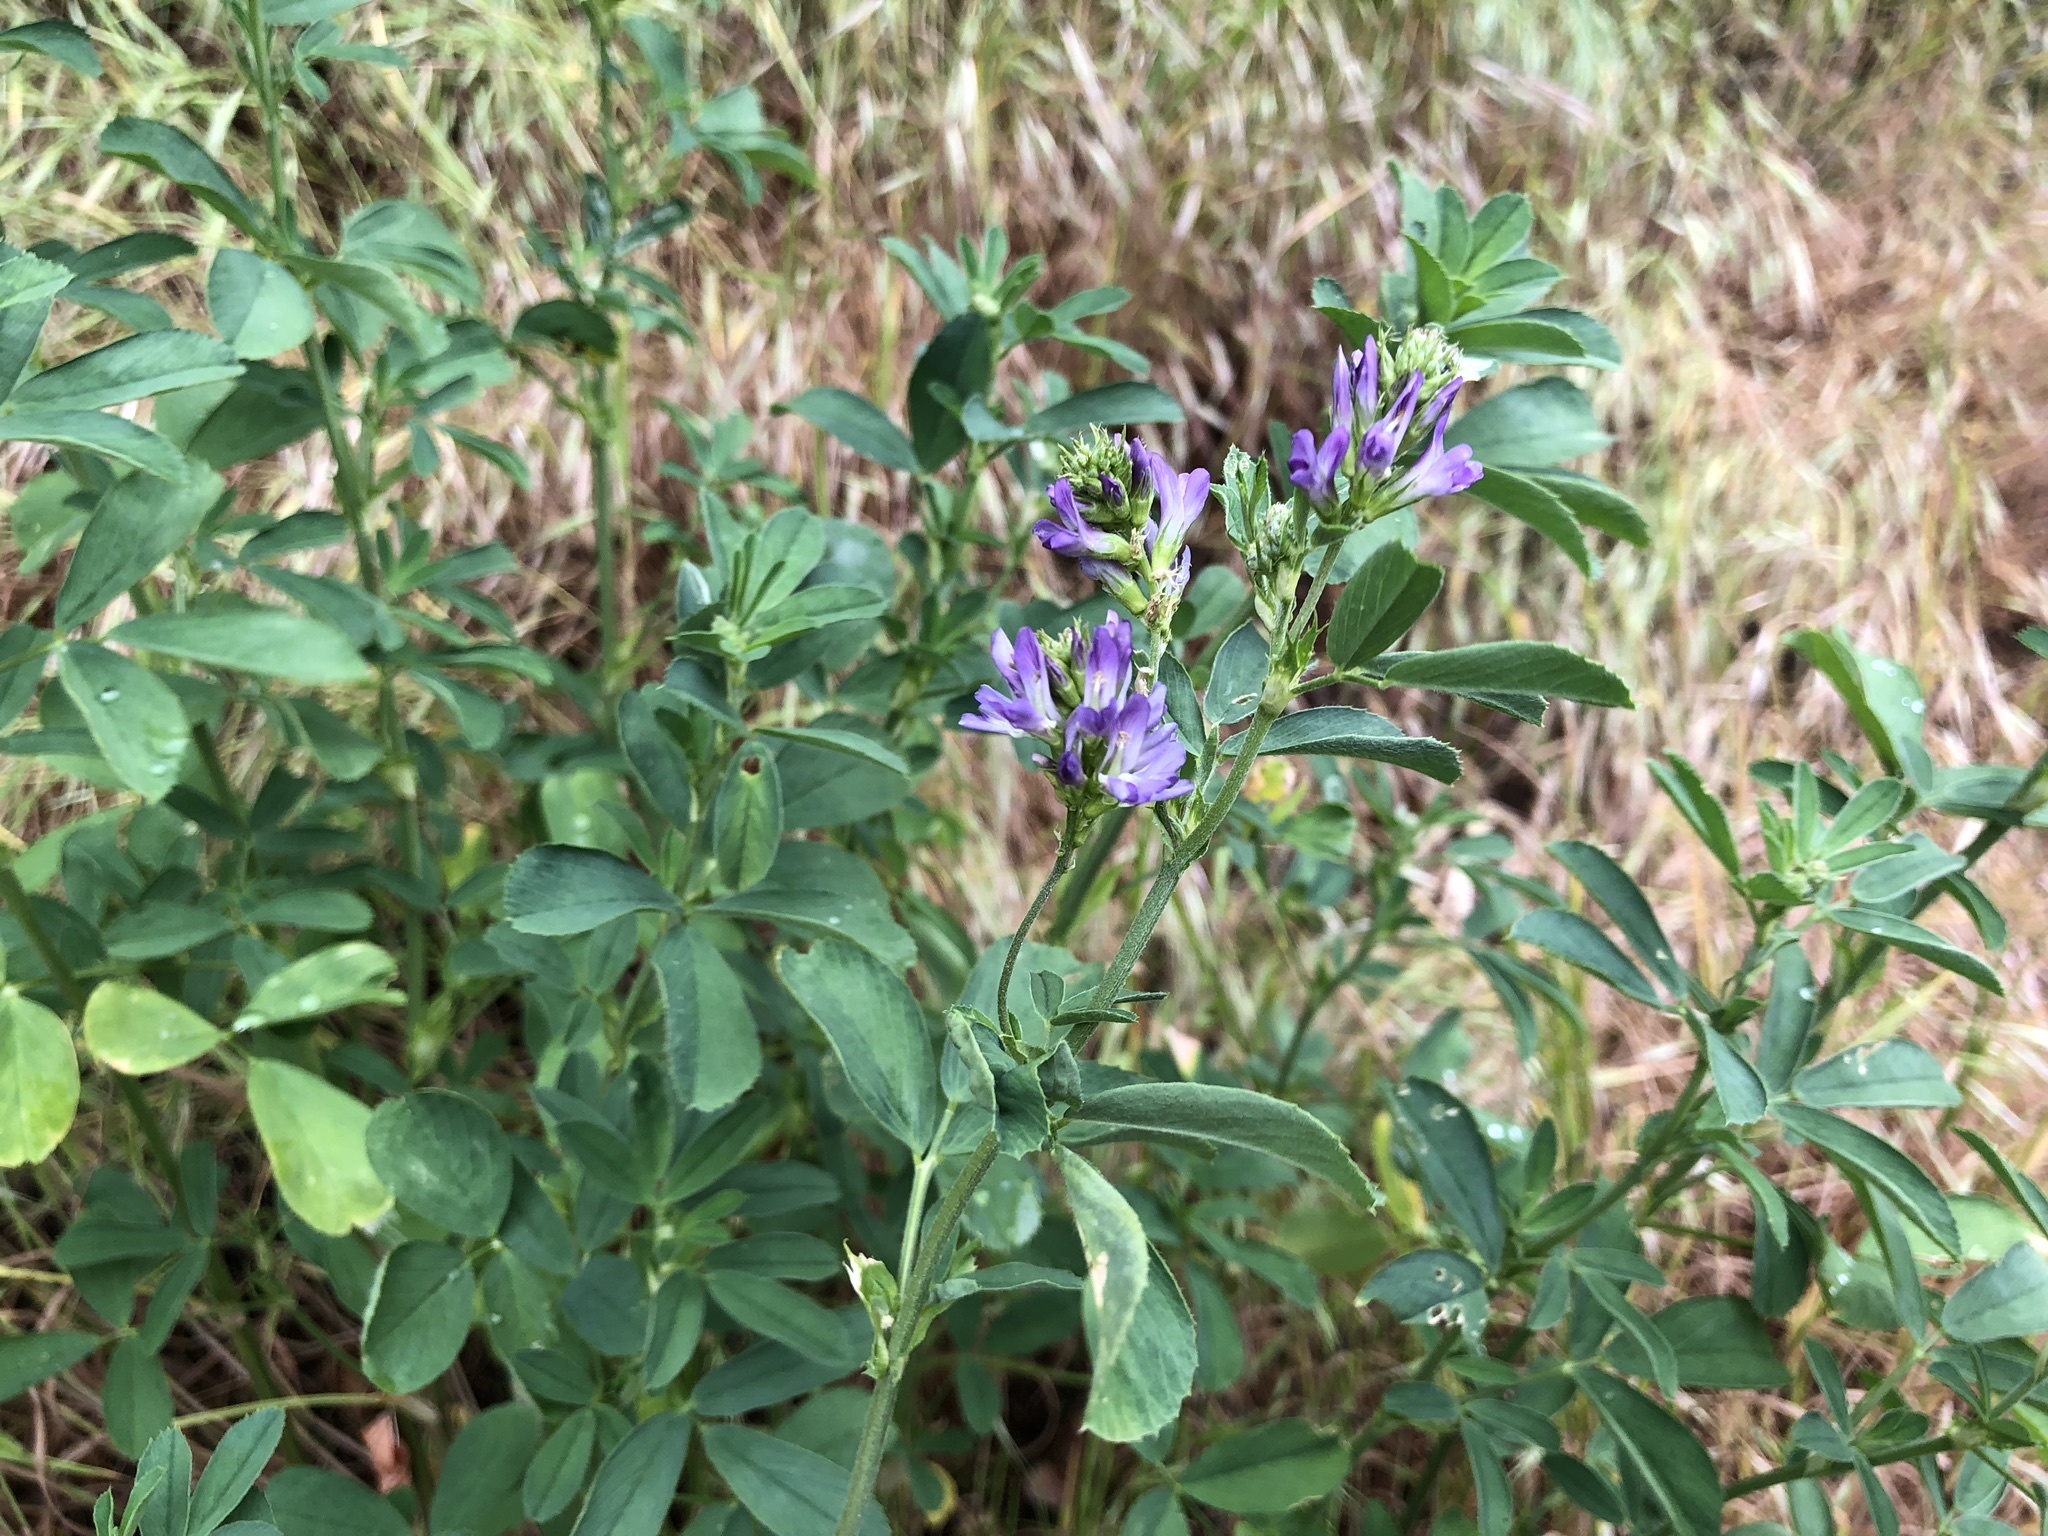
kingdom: Plantae
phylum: Tracheophyta
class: Magnoliopsida
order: Fabales
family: Fabaceae
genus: Medicago
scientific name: Medicago sativa
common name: Alfalfa
